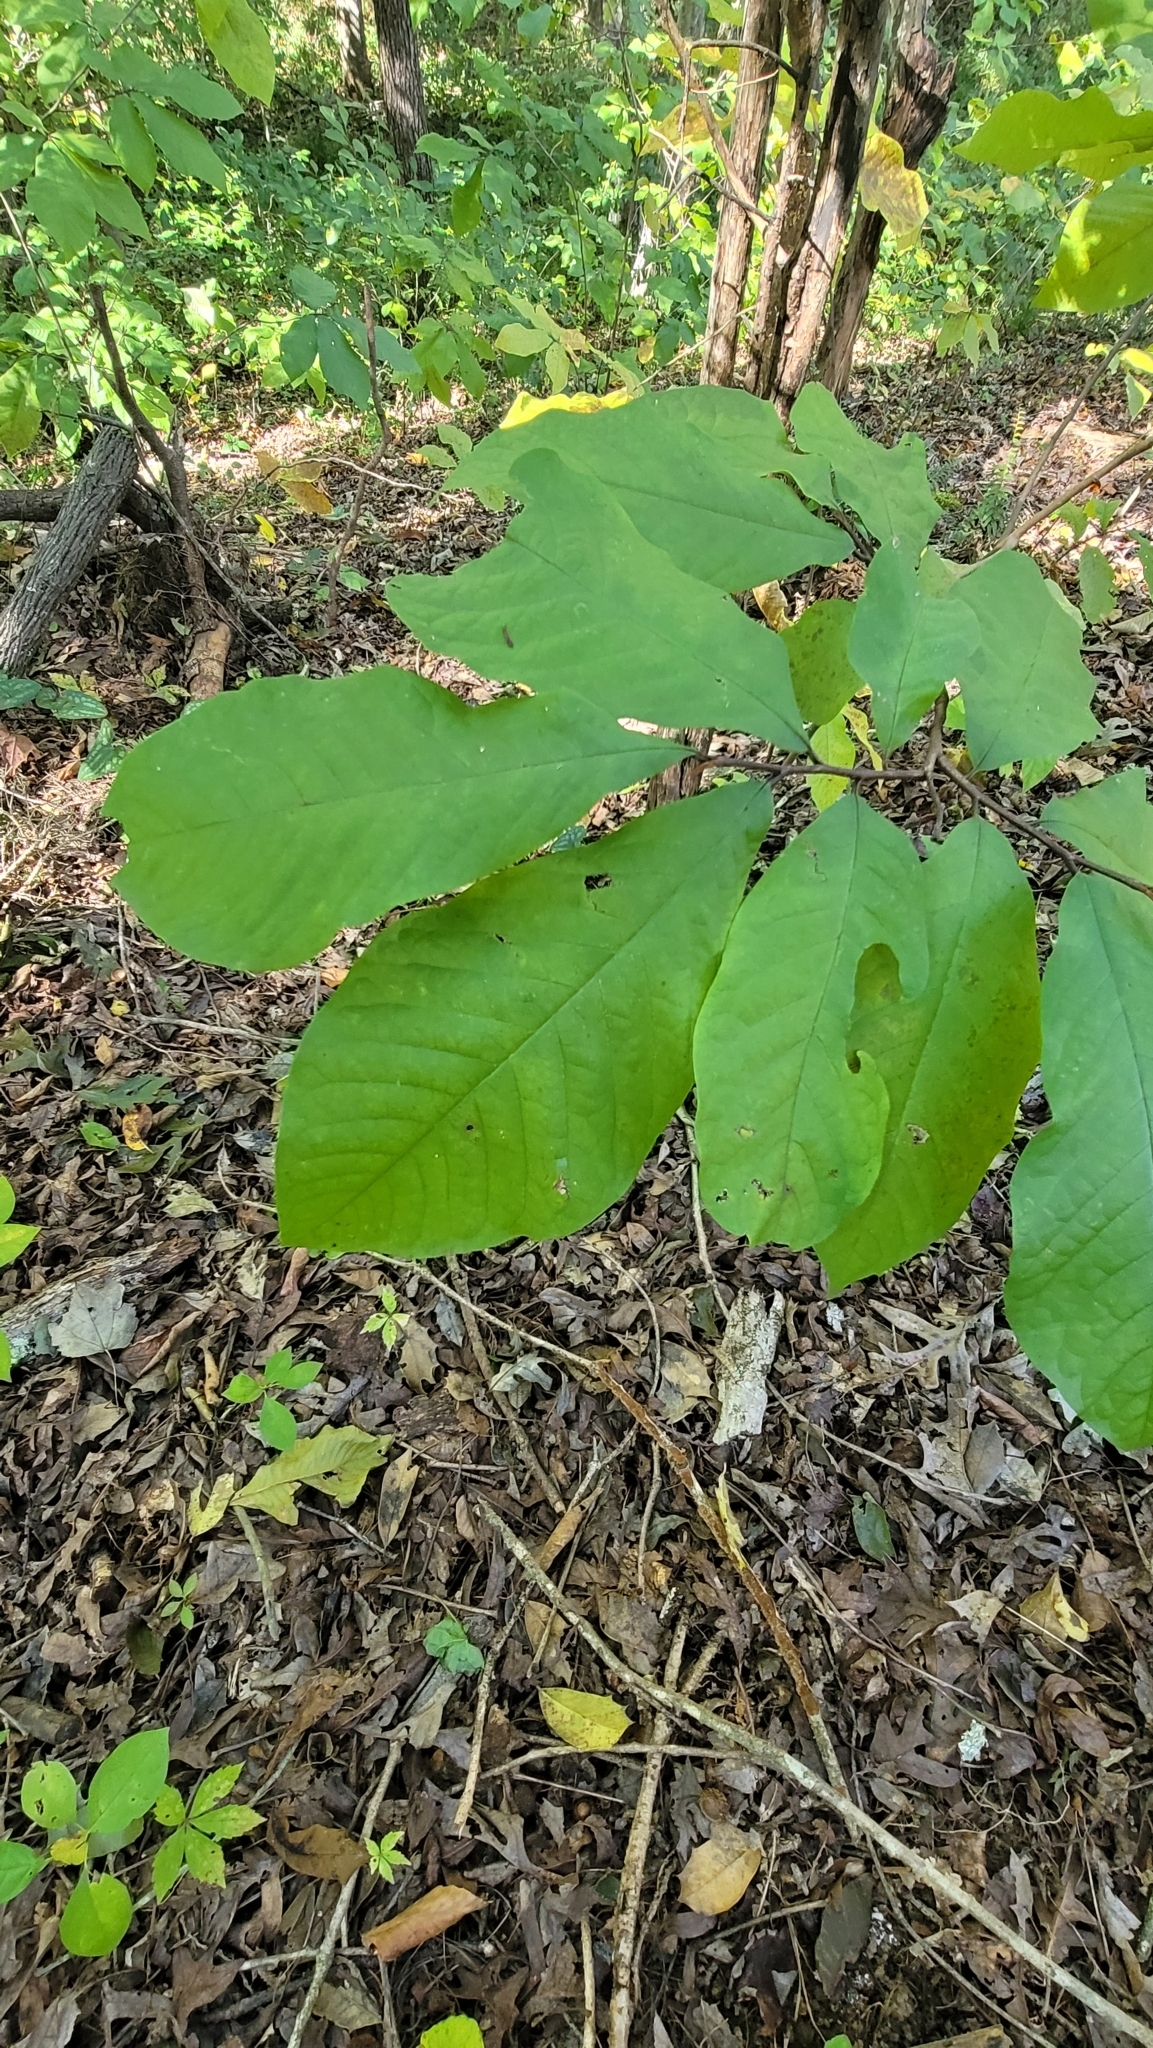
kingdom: Plantae
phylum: Tracheophyta
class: Magnoliopsida
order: Magnoliales
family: Annonaceae
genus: Asimina
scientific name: Asimina triloba
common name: Dog-banana
